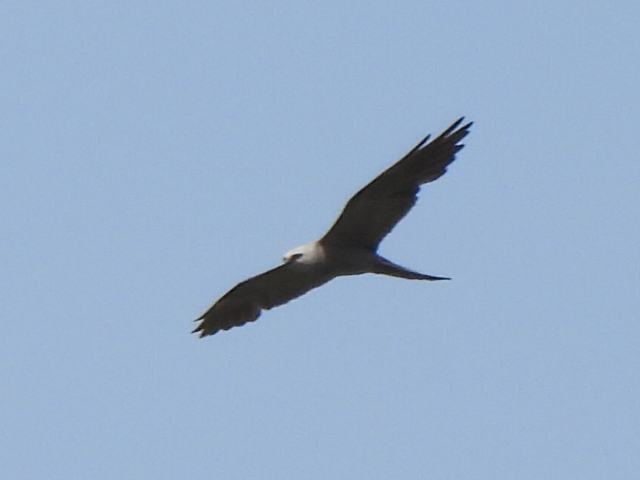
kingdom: Animalia
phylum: Chordata
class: Aves
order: Accipitriformes
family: Accipitridae
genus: Ictinia
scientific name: Ictinia mississippiensis
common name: Mississippi kite
